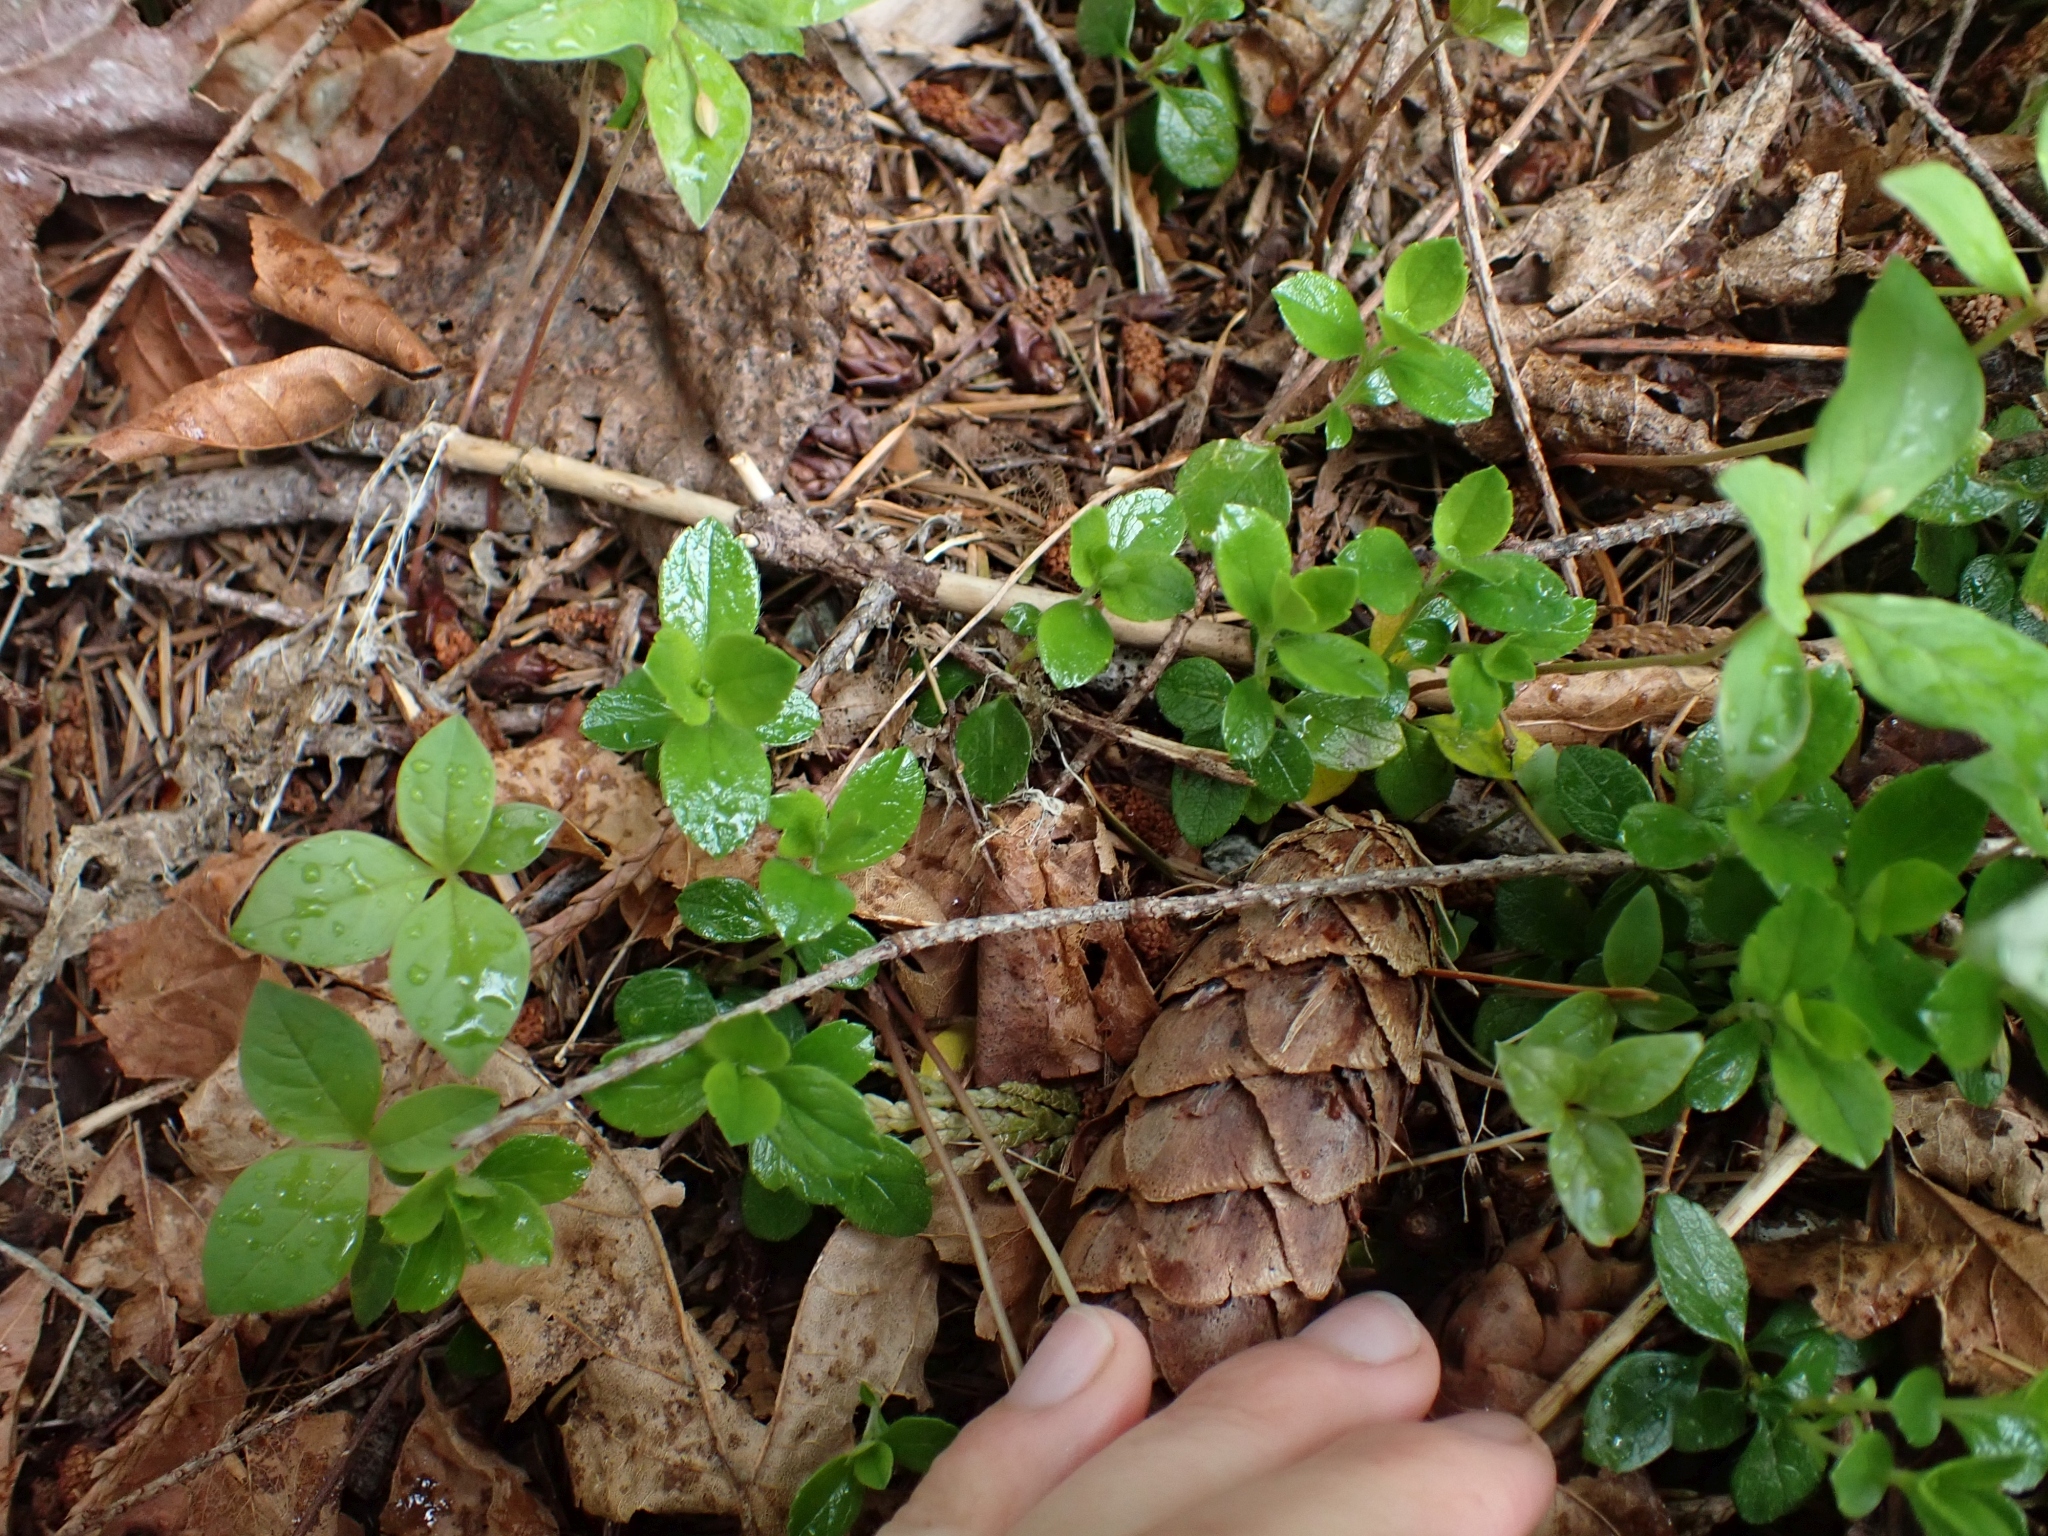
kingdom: Plantae
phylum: Tracheophyta
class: Magnoliopsida
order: Dipsacales
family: Caprifoliaceae
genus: Linnaea
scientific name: Linnaea borealis
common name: Twinflower
